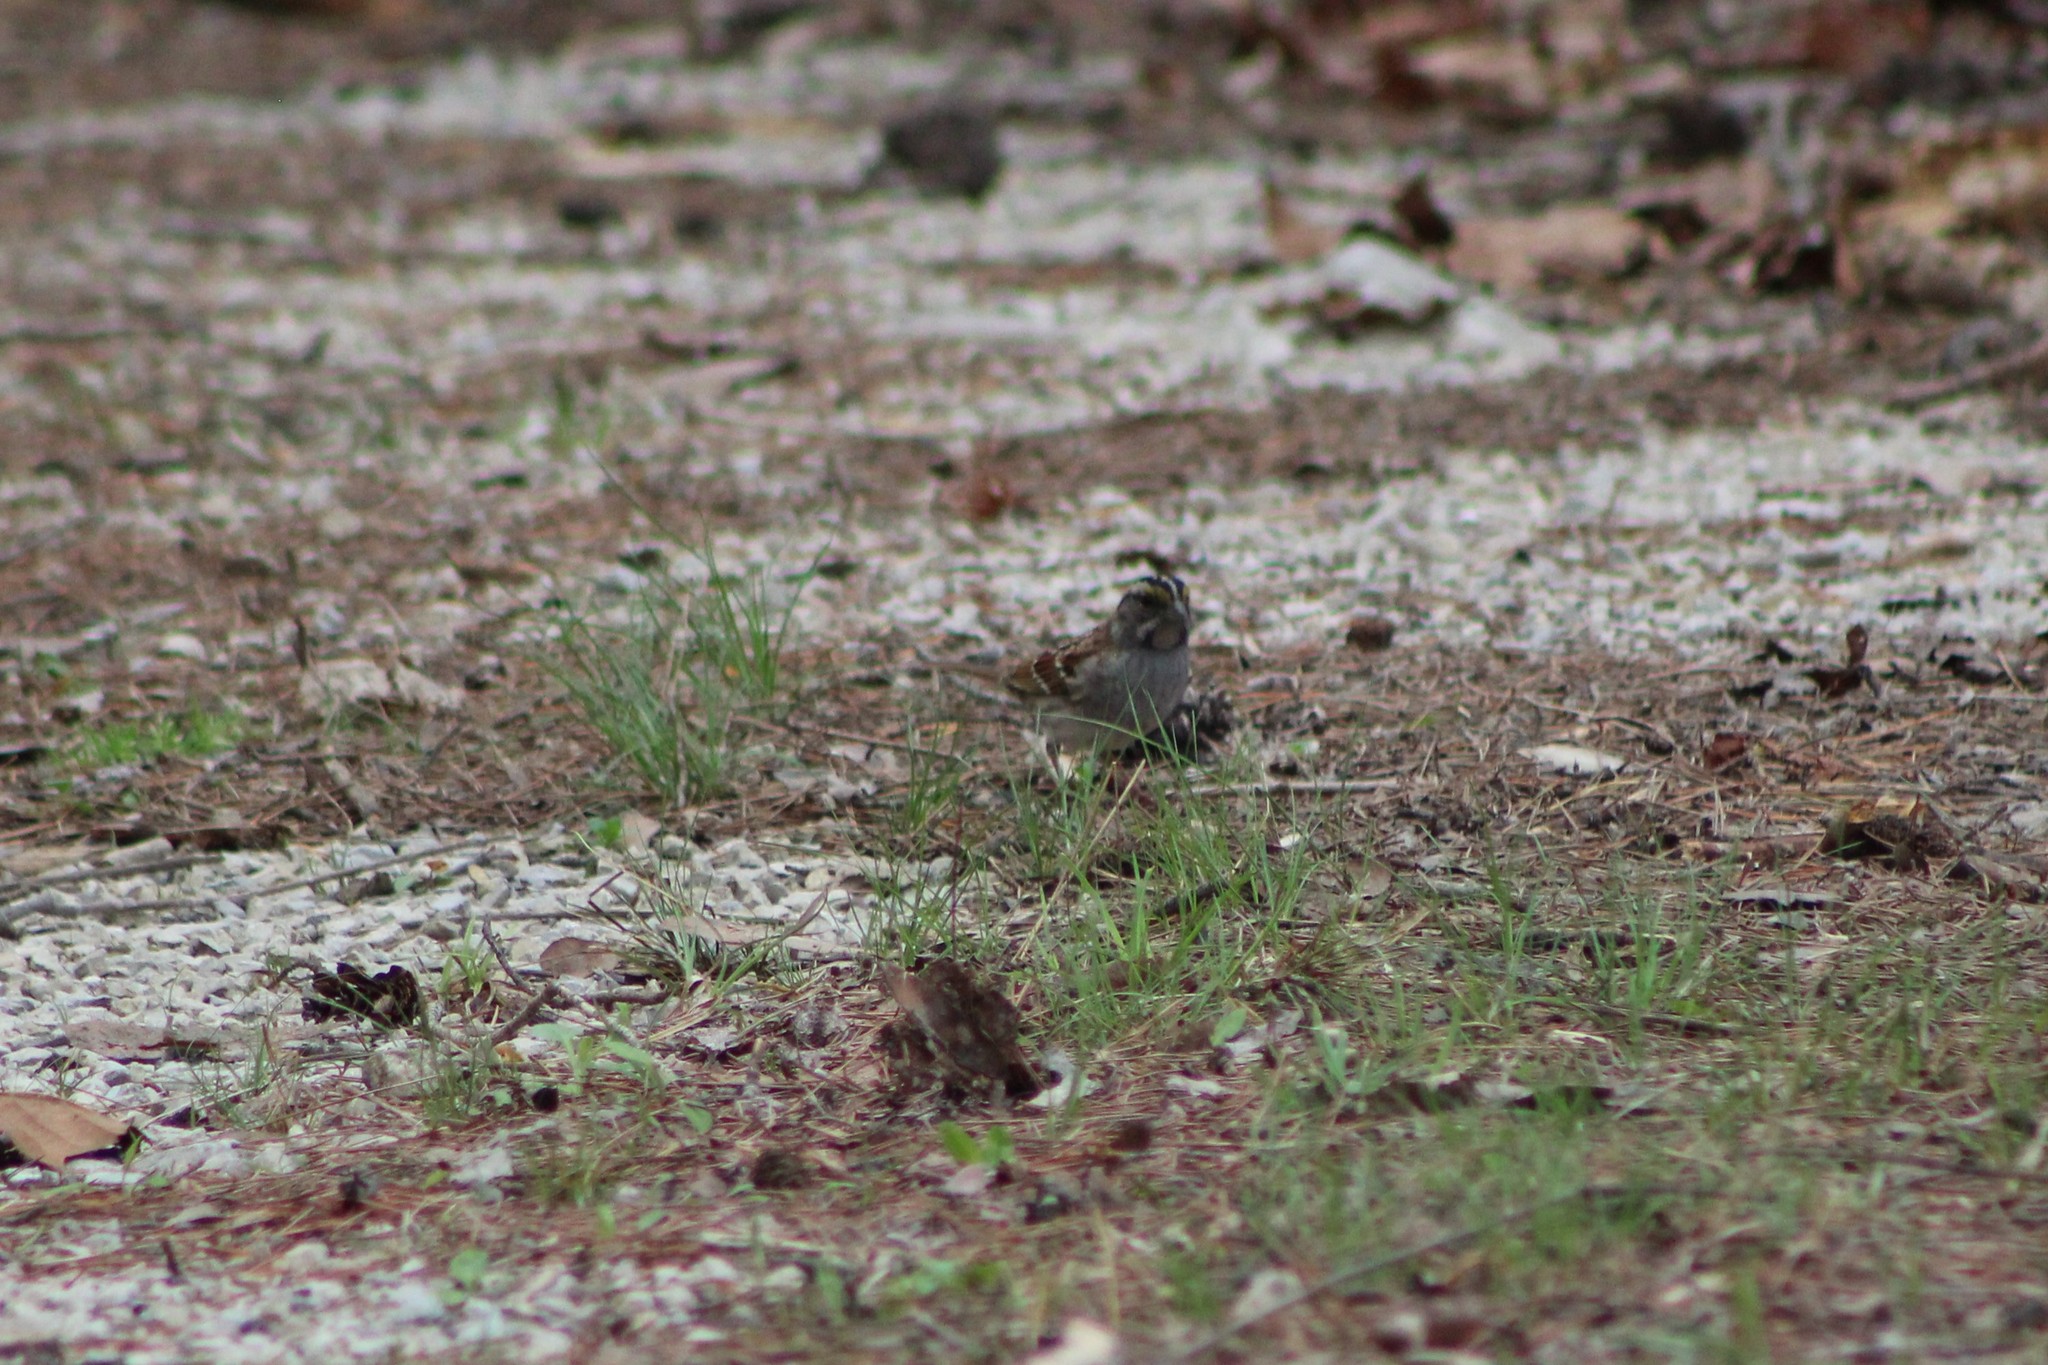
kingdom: Animalia
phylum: Chordata
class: Aves
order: Passeriformes
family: Passerellidae
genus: Zonotrichia
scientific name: Zonotrichia albicollis
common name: White-throated sparrow
